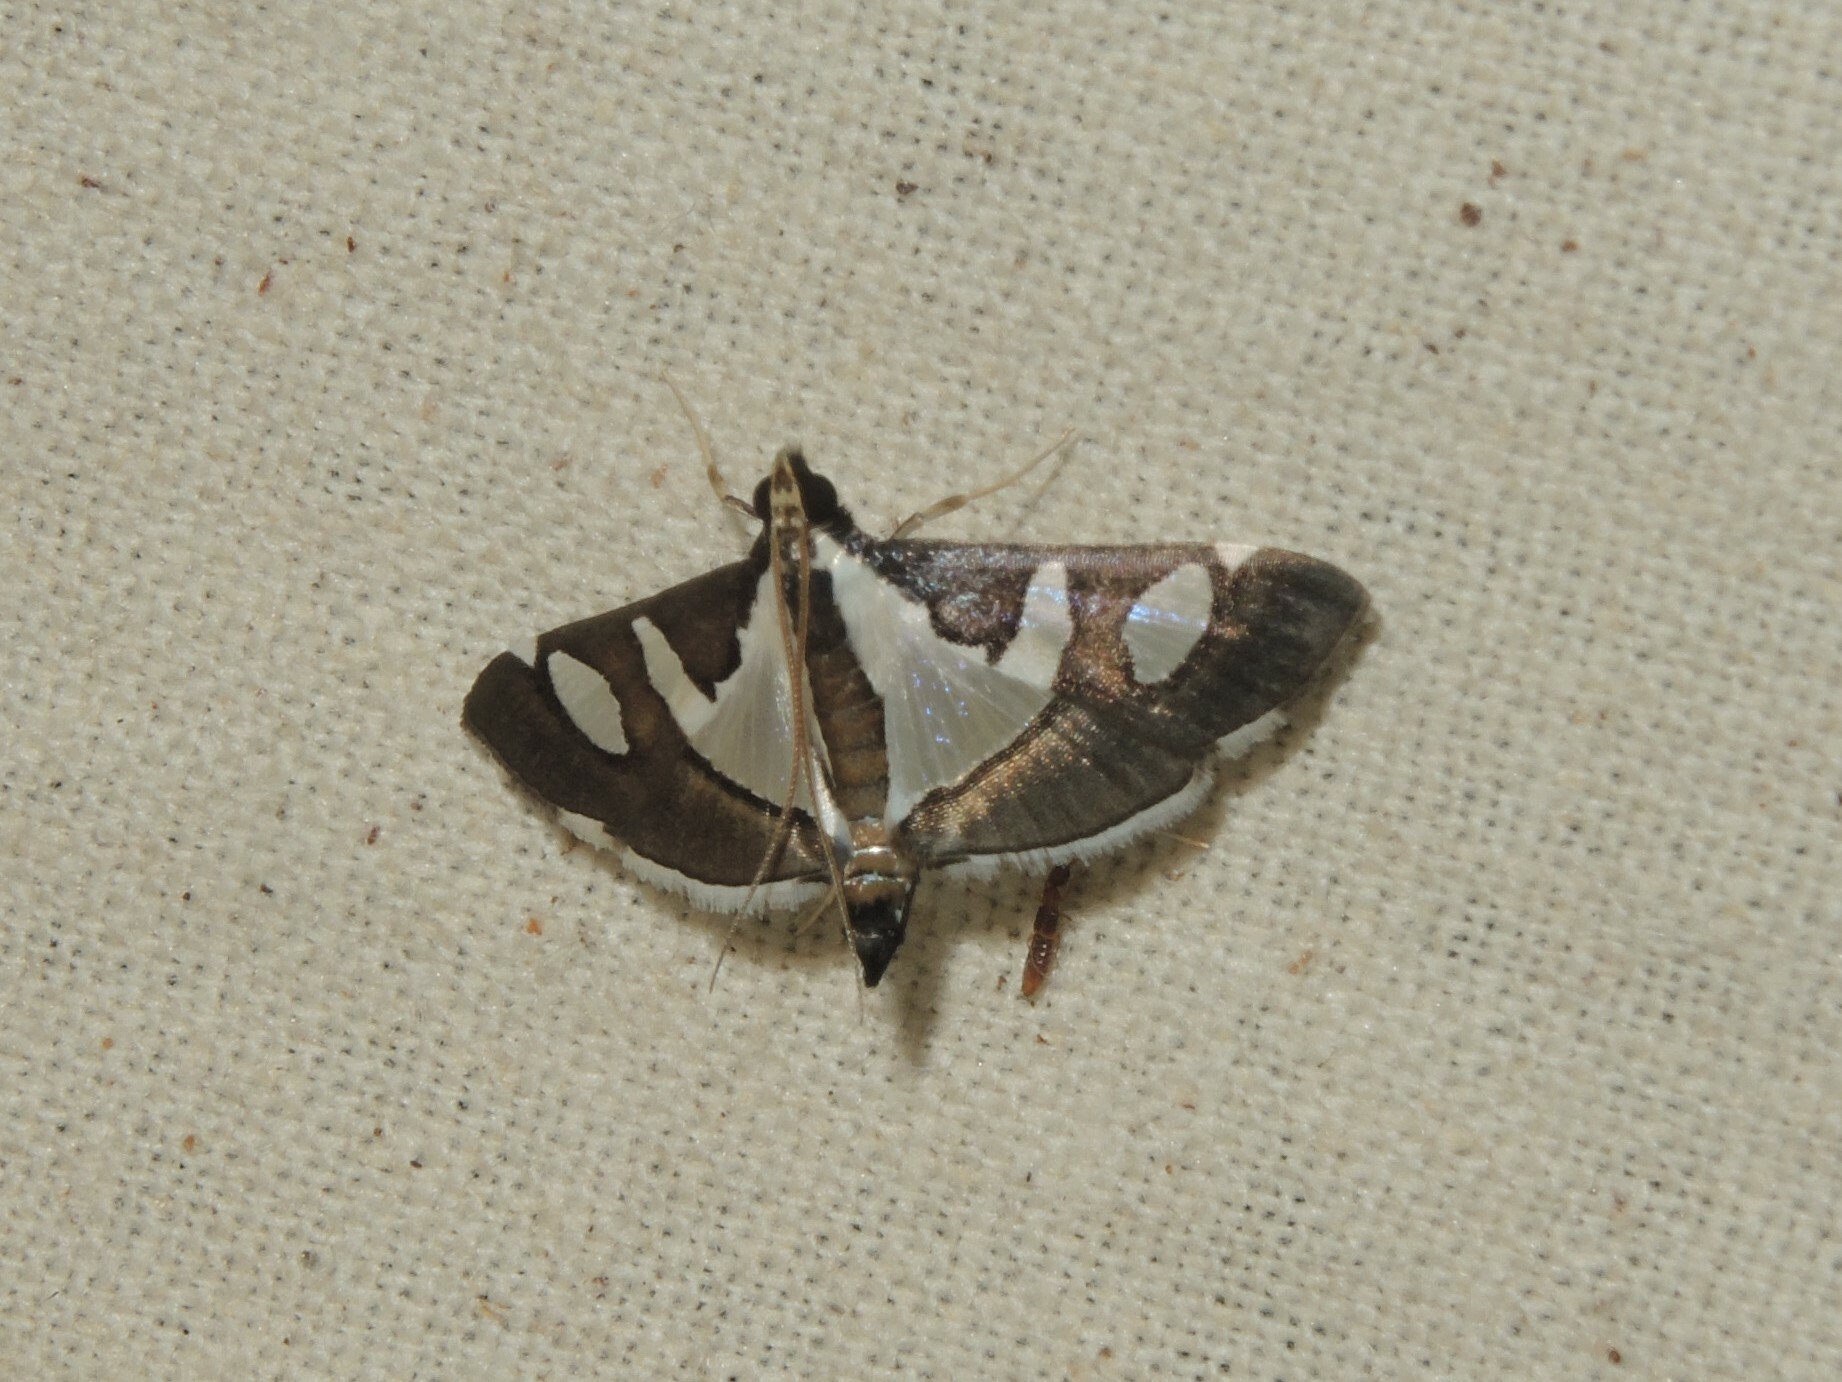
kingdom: Animalia
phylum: Arthropoda
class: Insecta
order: Lepidoptera
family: Crambidae
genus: Glyphodes
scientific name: Glyphodes bicolor
